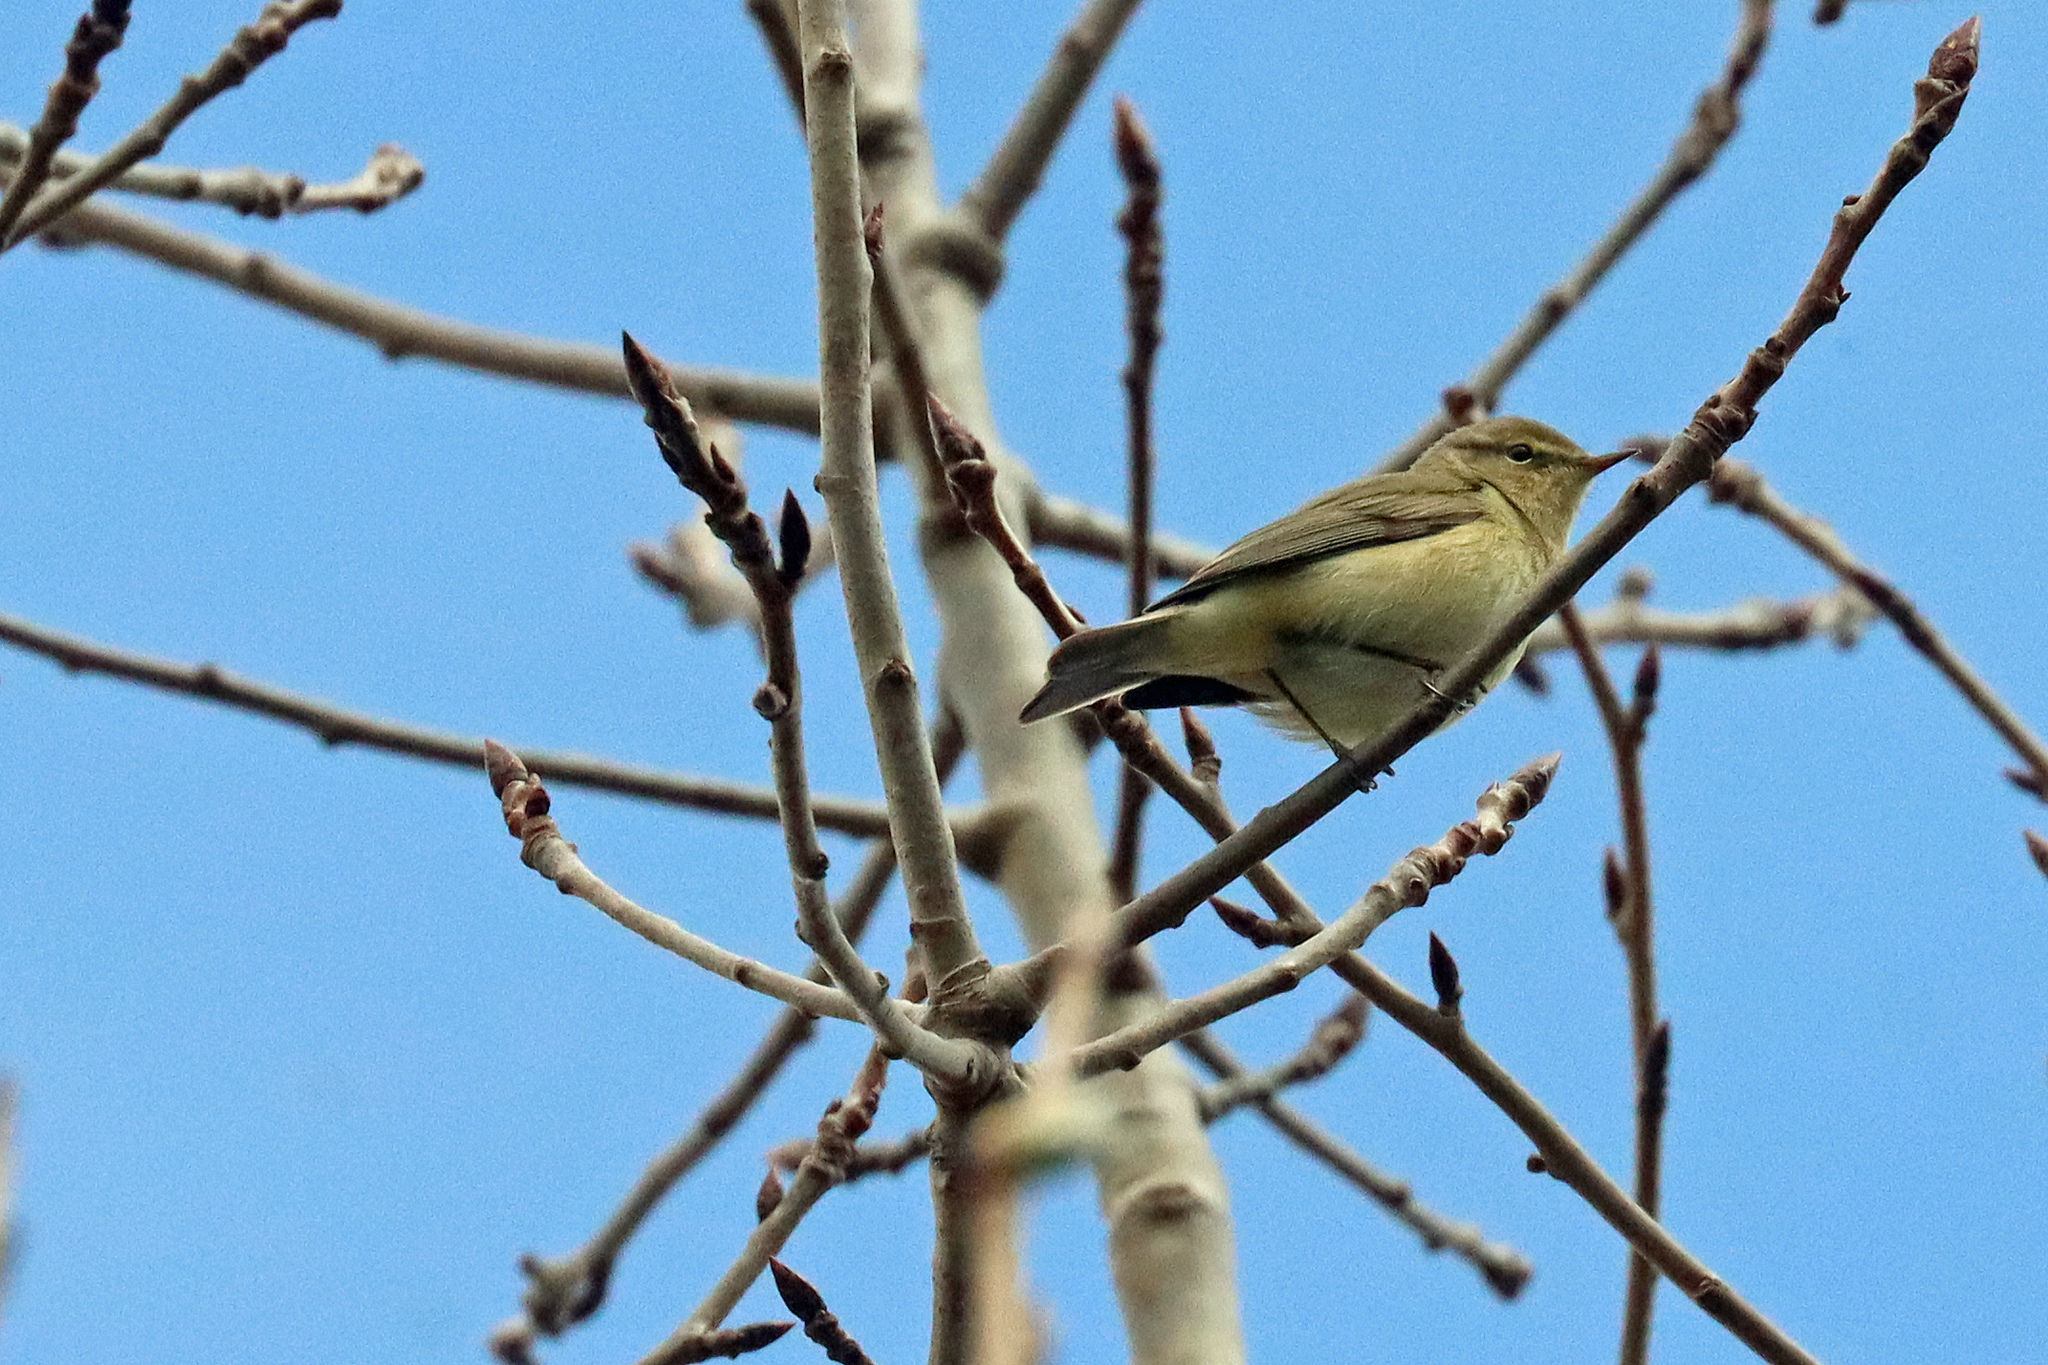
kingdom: Animalia
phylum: Chordata
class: Aves
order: Passeriformes
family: Phylloscopidae
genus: Phylloscopus
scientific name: Phylloscopus collybita
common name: Common chiffchaff
